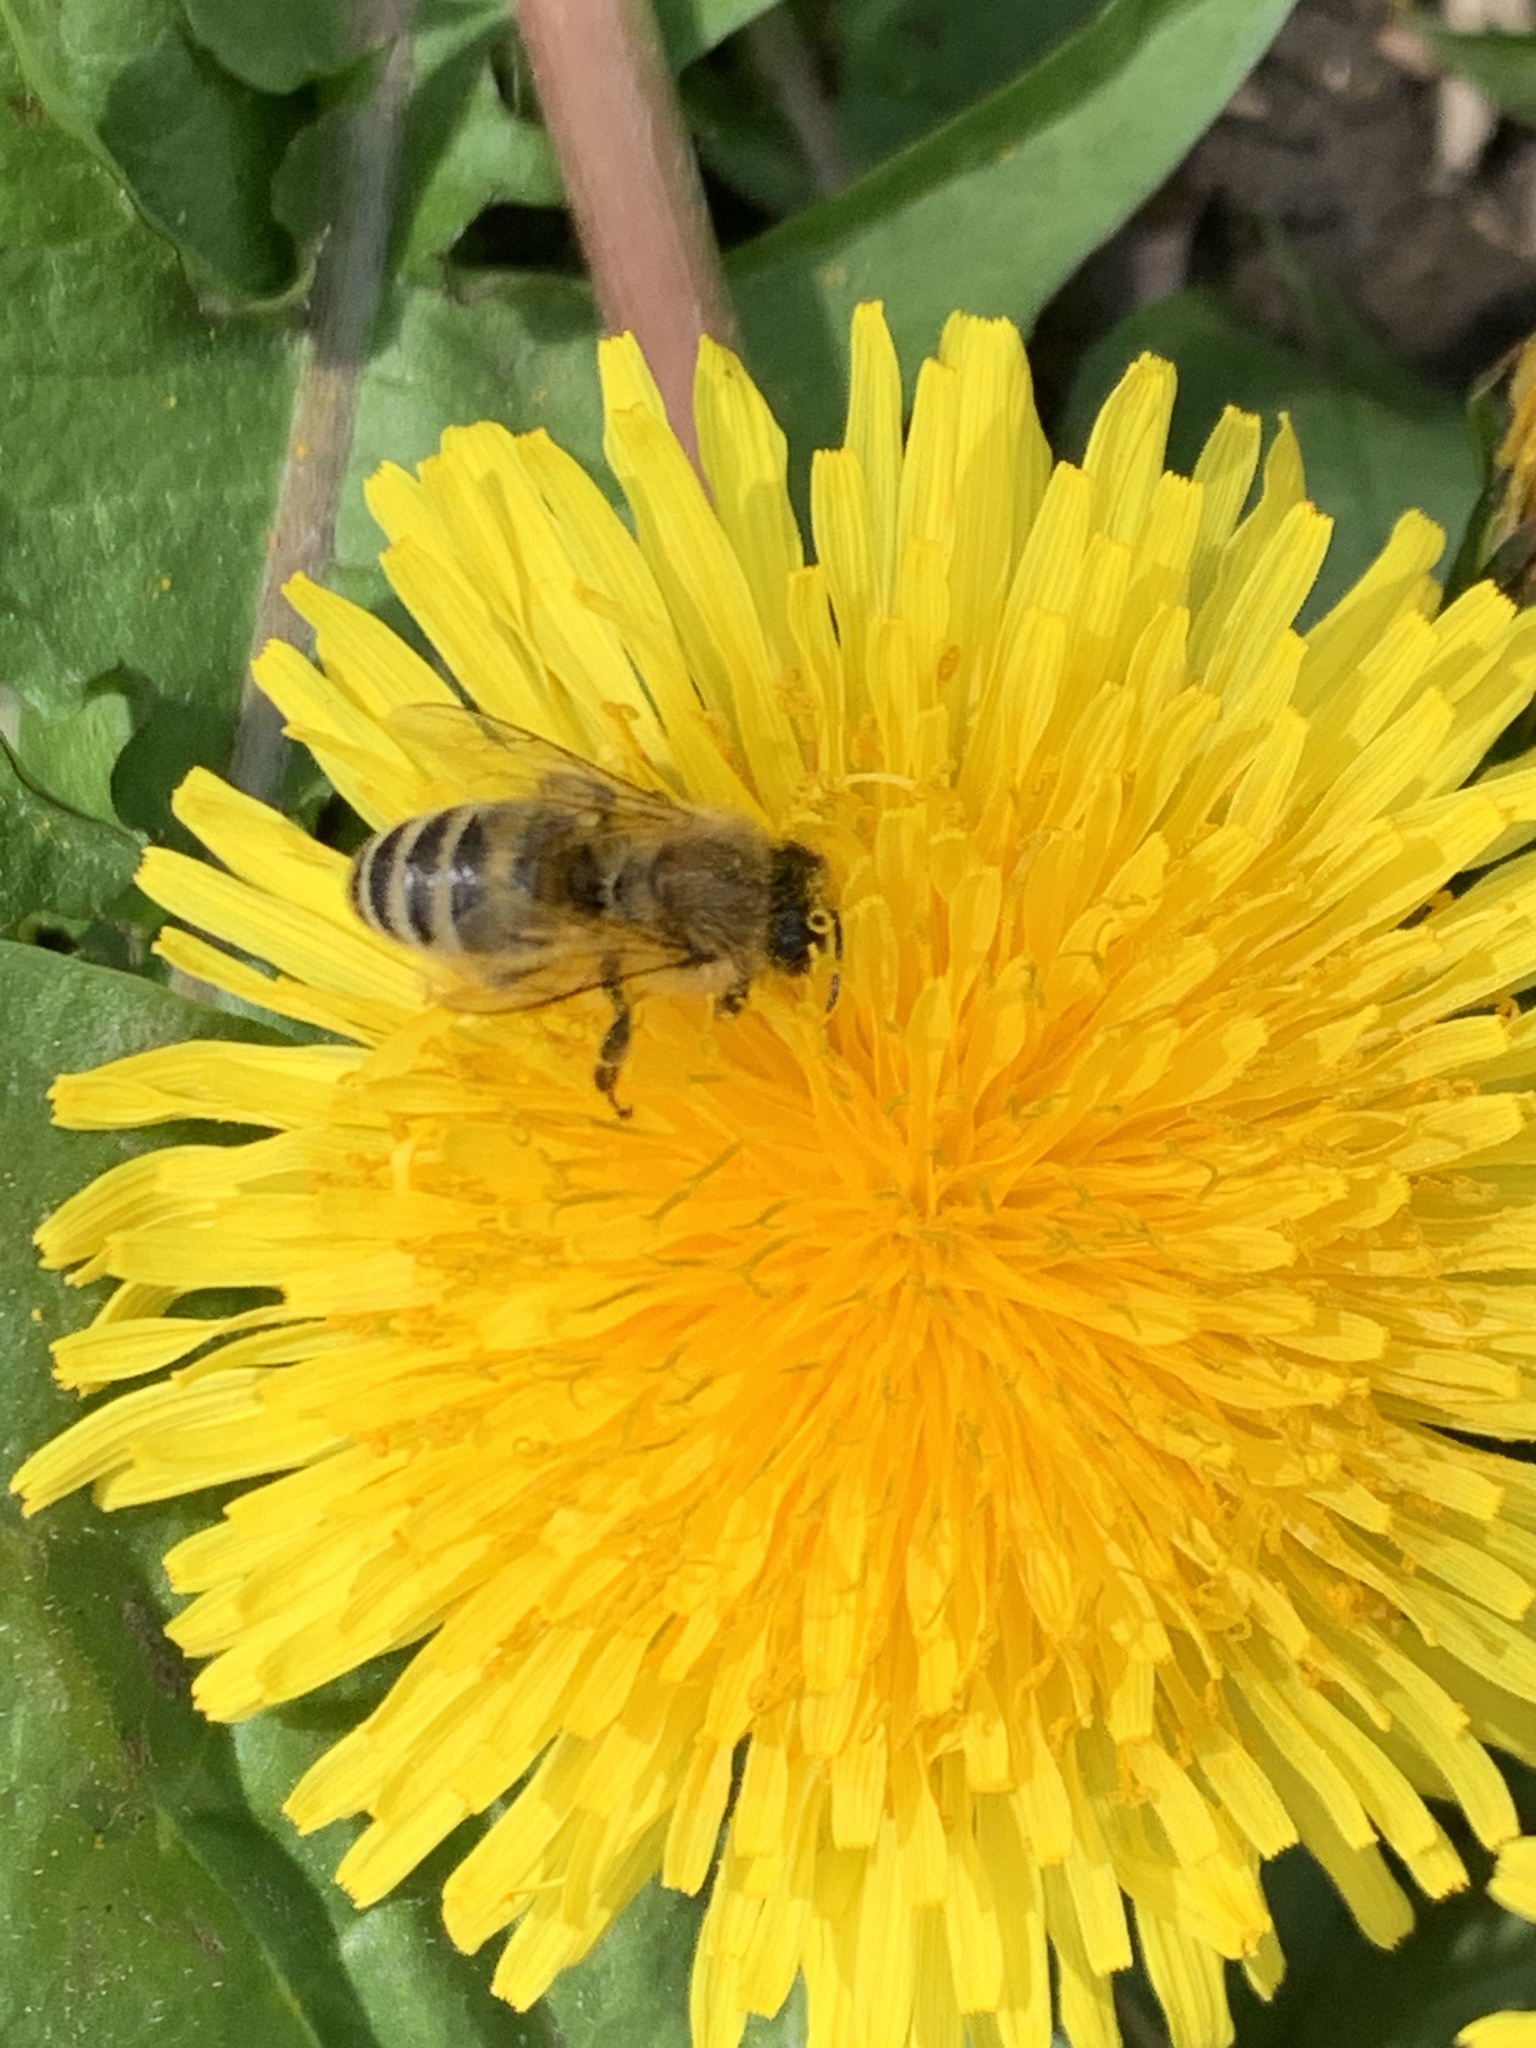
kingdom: Animalia
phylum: Arthropoda
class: Insecta
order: Hymenoptera
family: Apidae
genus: Apis
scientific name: Apis mellifera
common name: Honey bee
